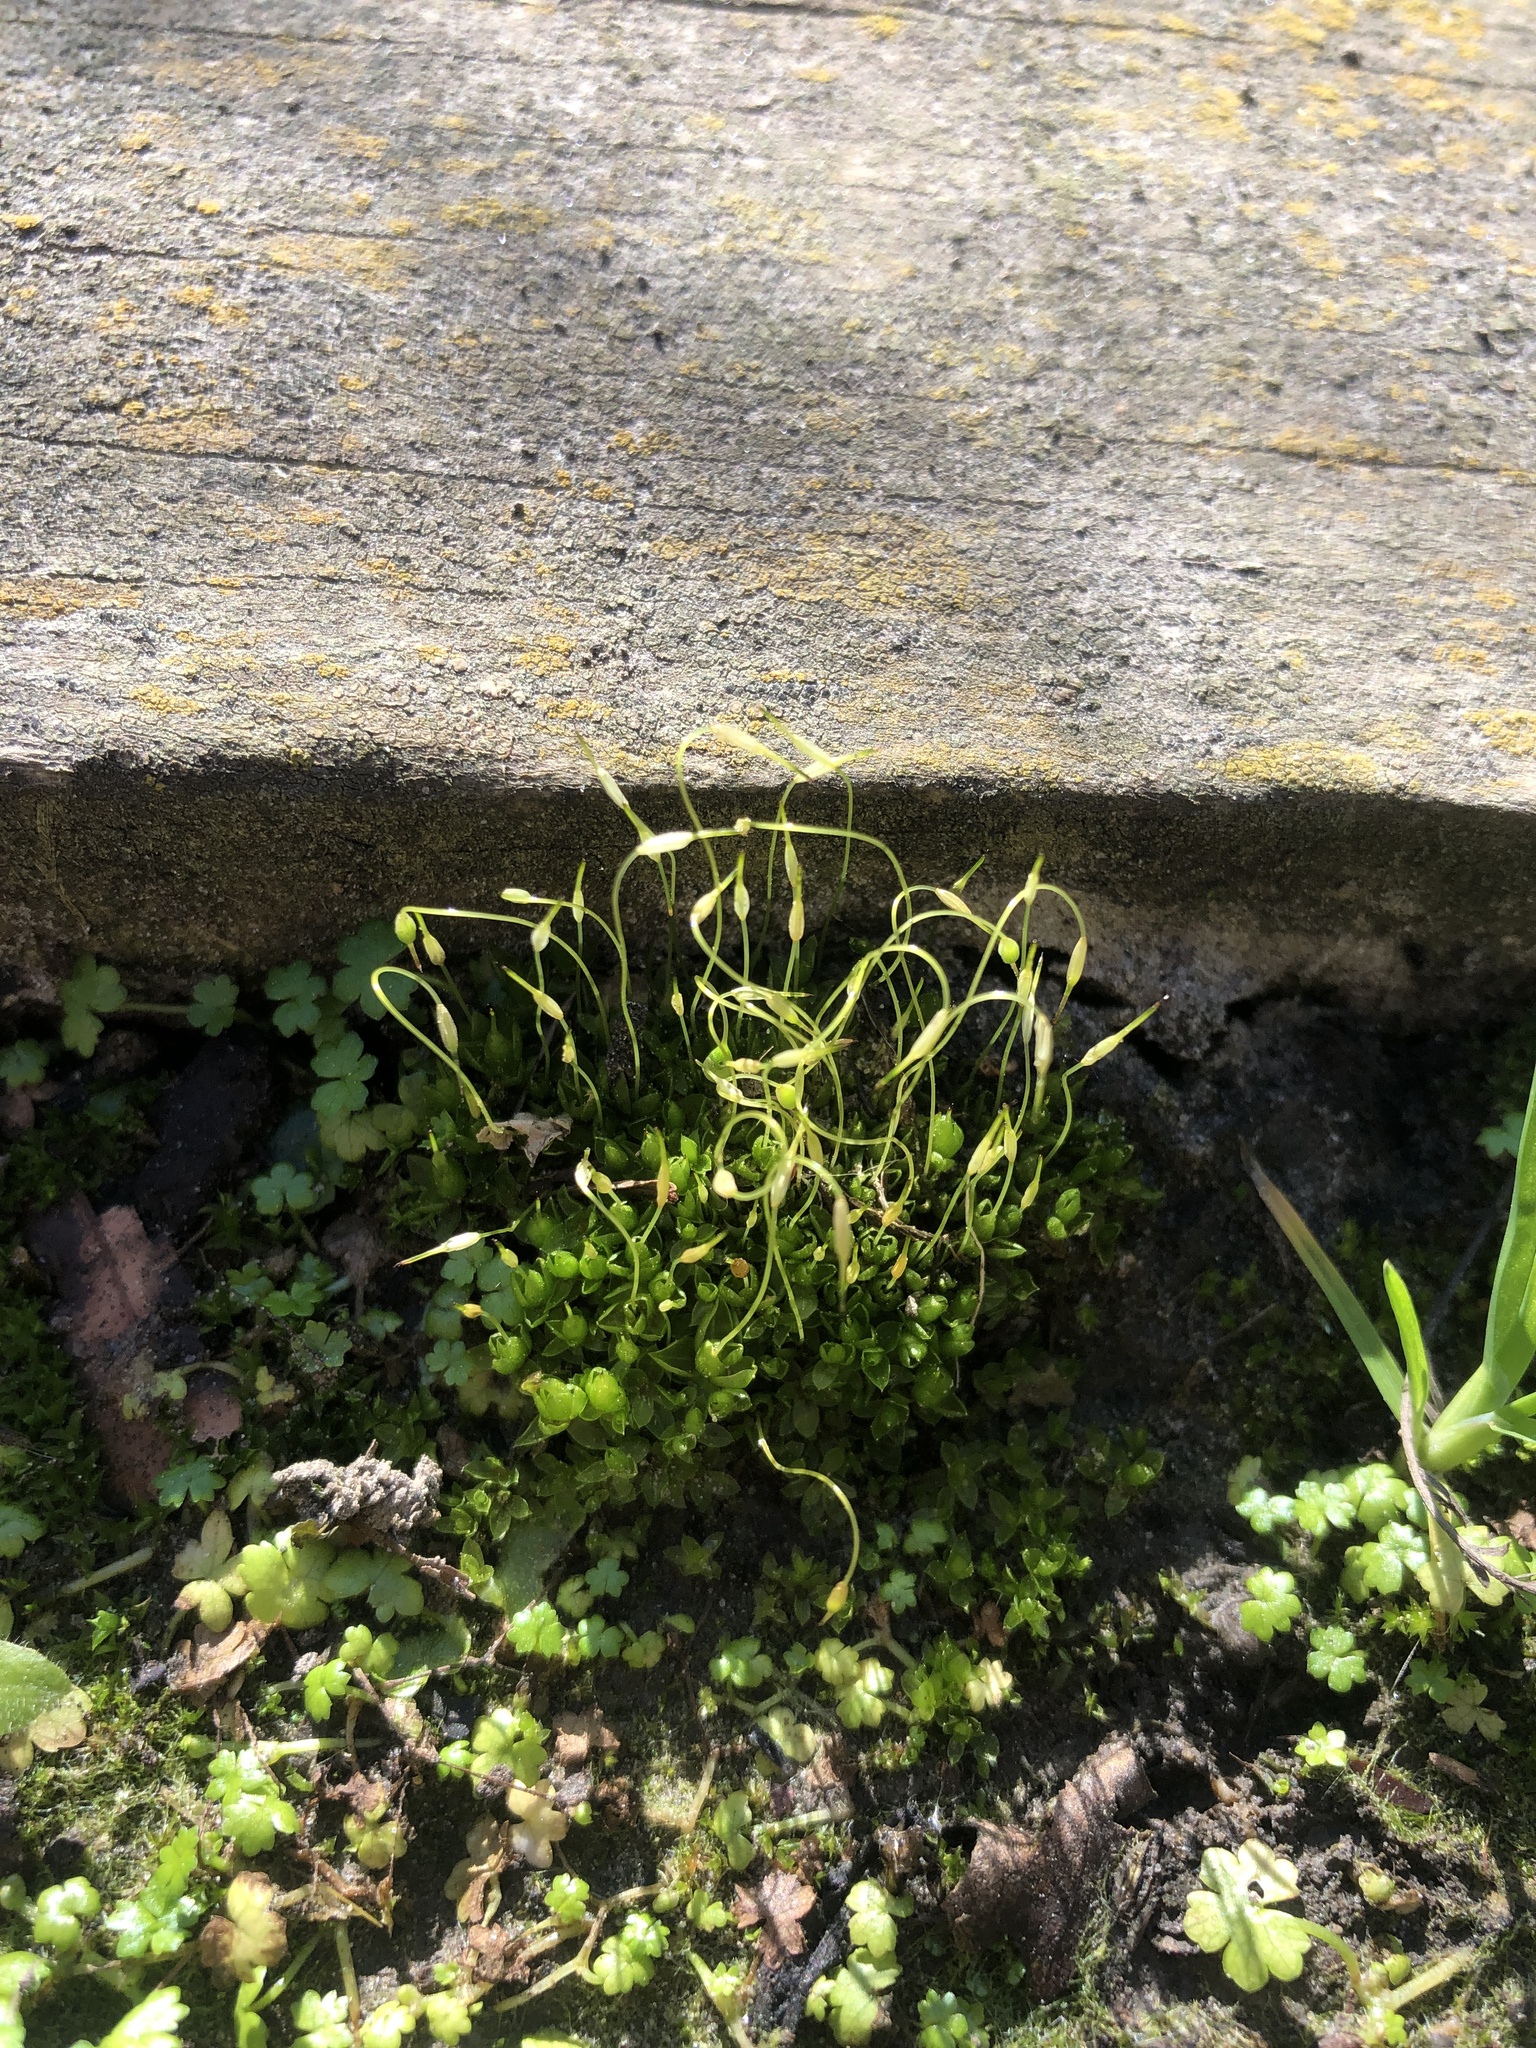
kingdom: Plantae
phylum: Bryophyta
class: Bryopsida
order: Funariales
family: Funariaceae
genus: Funaria
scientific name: Funaria hygrometrica
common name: Common cord moss
